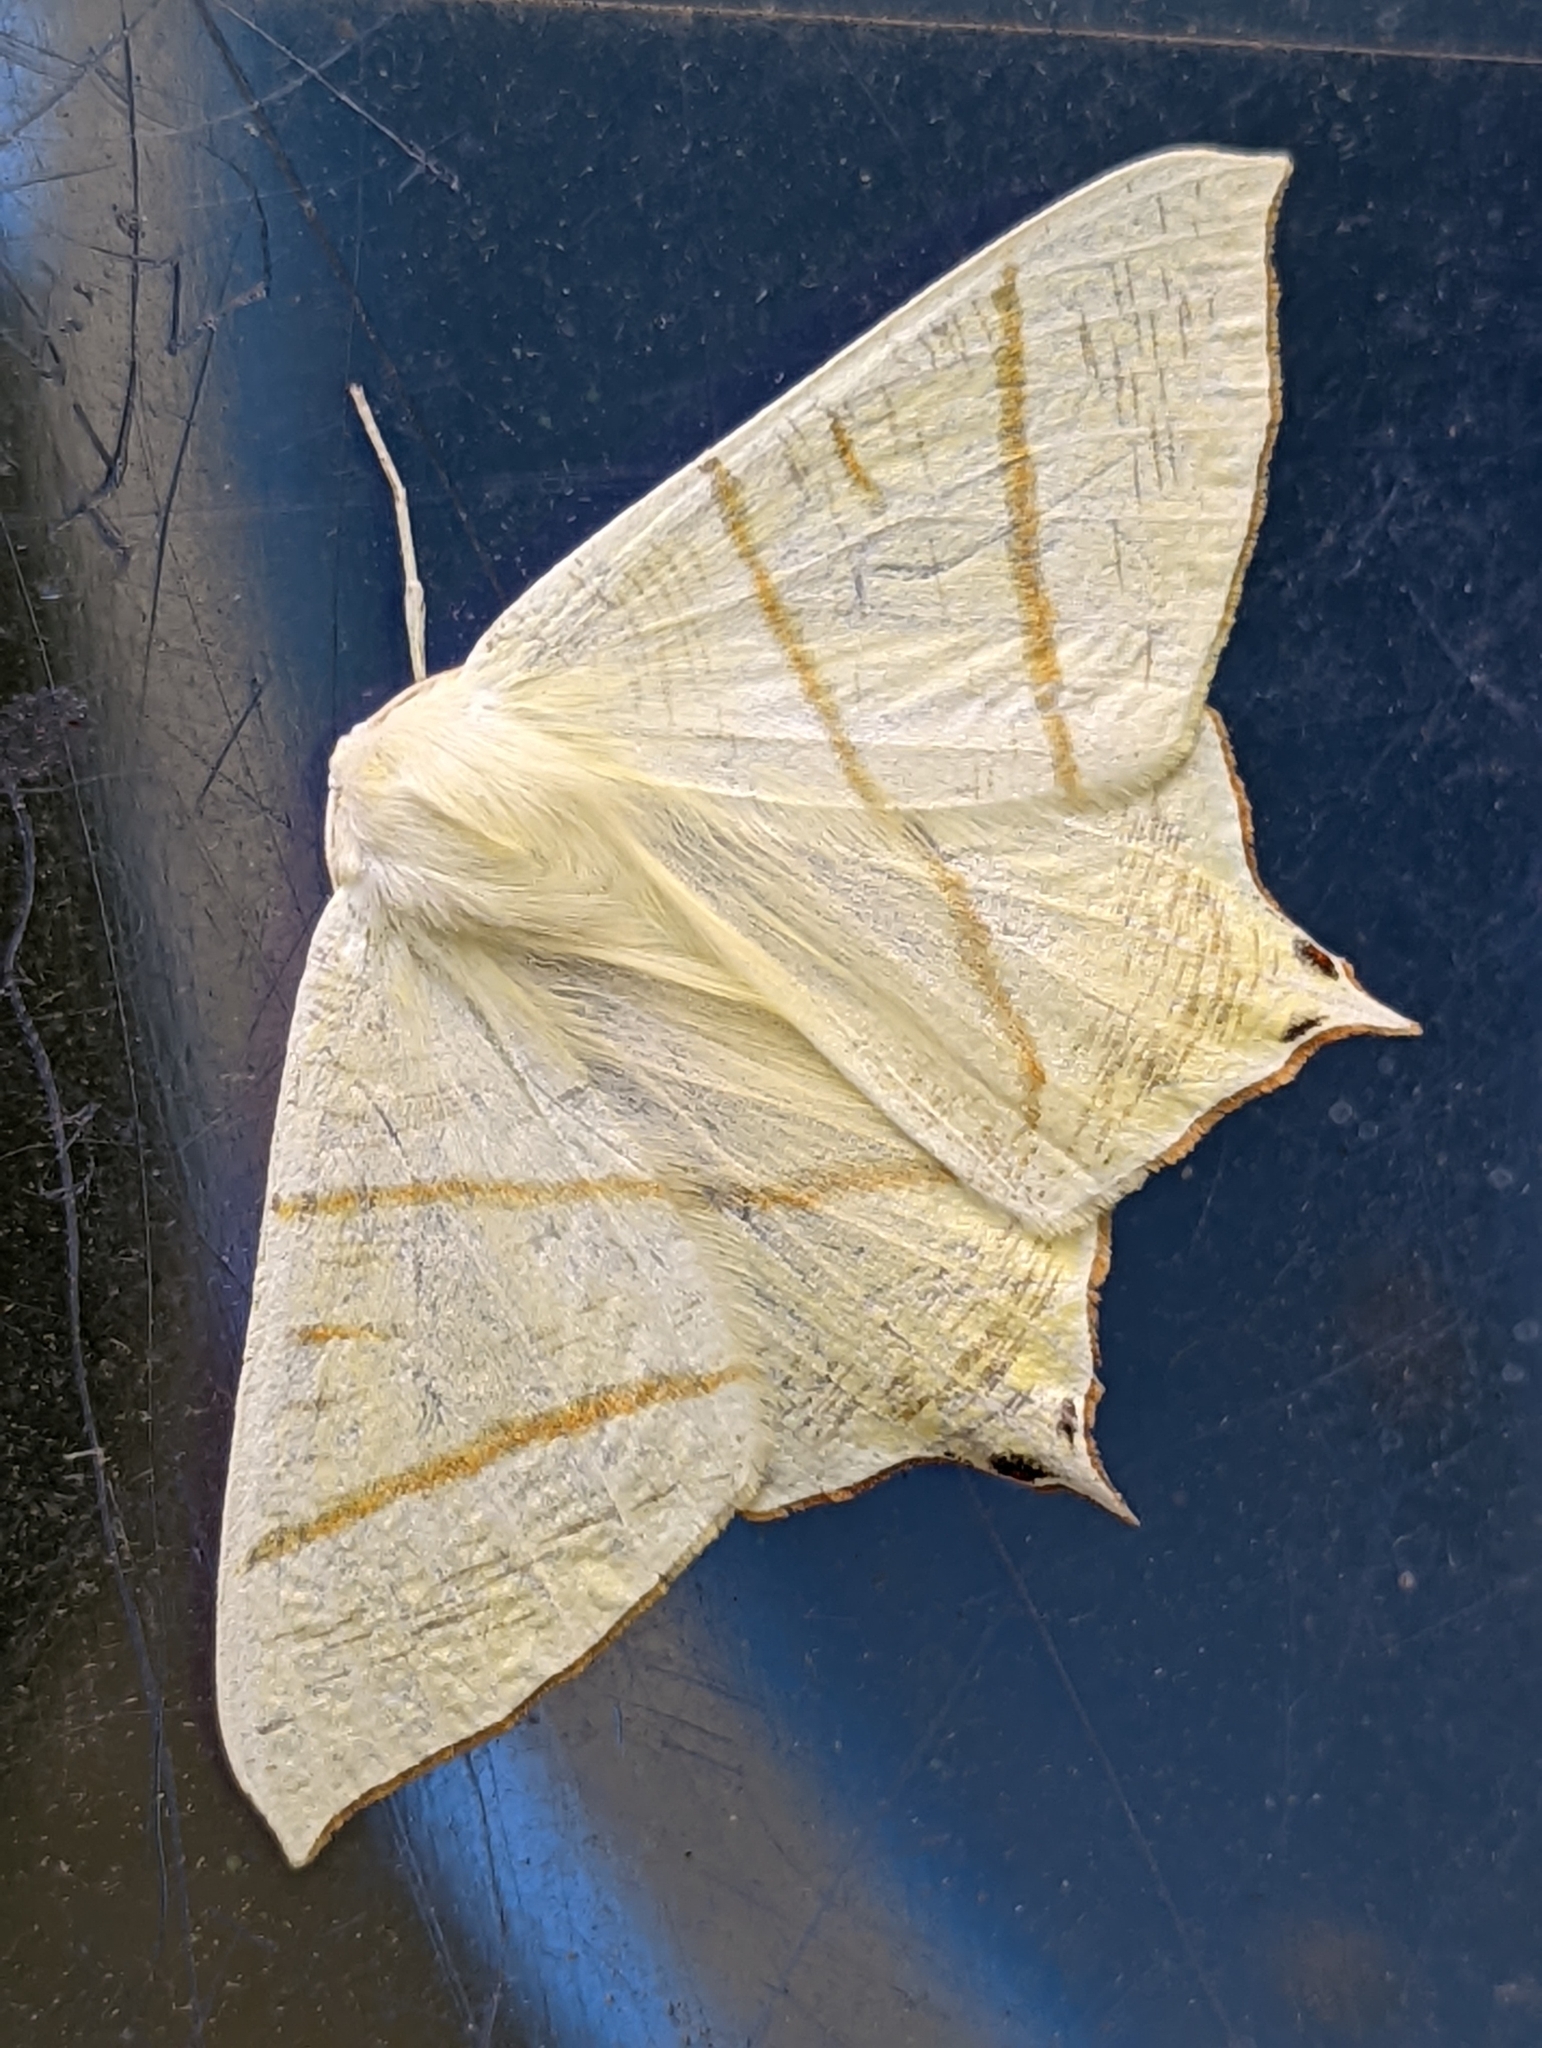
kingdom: Animalia
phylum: Arthropoda
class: Insecta
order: Lepidoptera
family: Geometridae
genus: Ourapteryx
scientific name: Ourapteryx sambucaria
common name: Swallow-tailed moth
